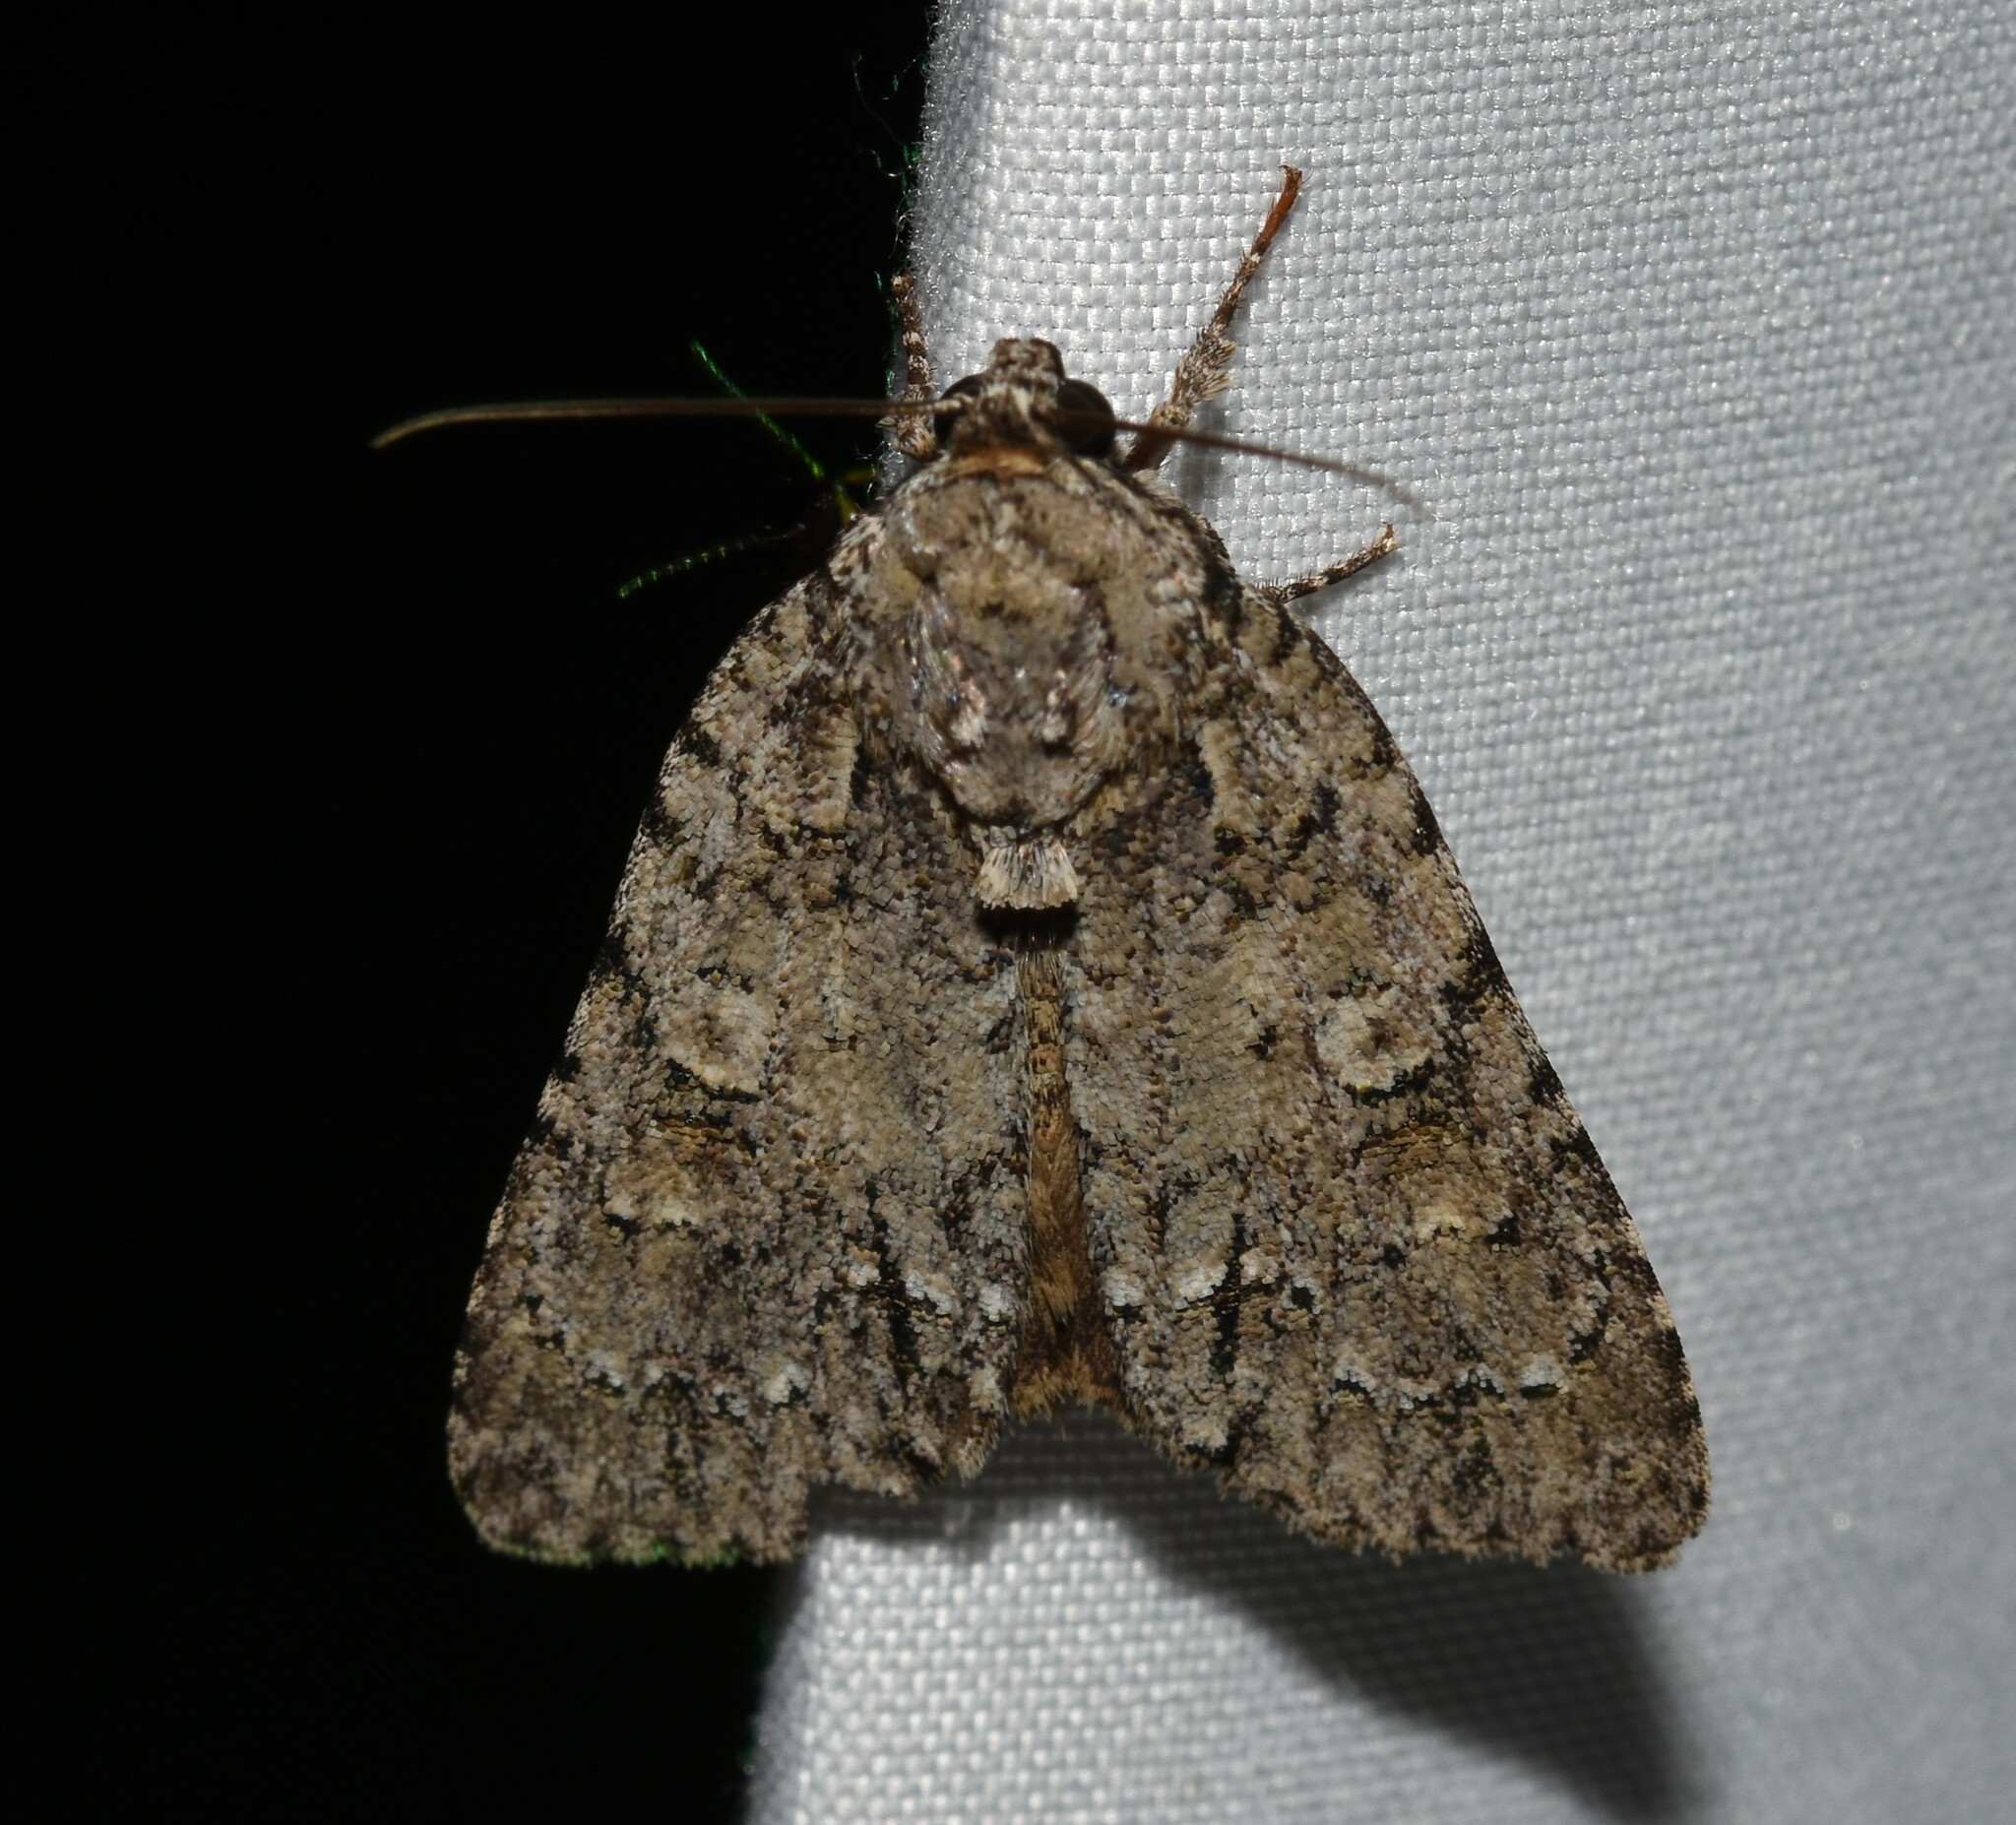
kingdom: Animalia
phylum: Arthropoda
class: Insecta
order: Lepidoptera
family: Noctuidae
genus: Acronicta
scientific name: Acronicta
